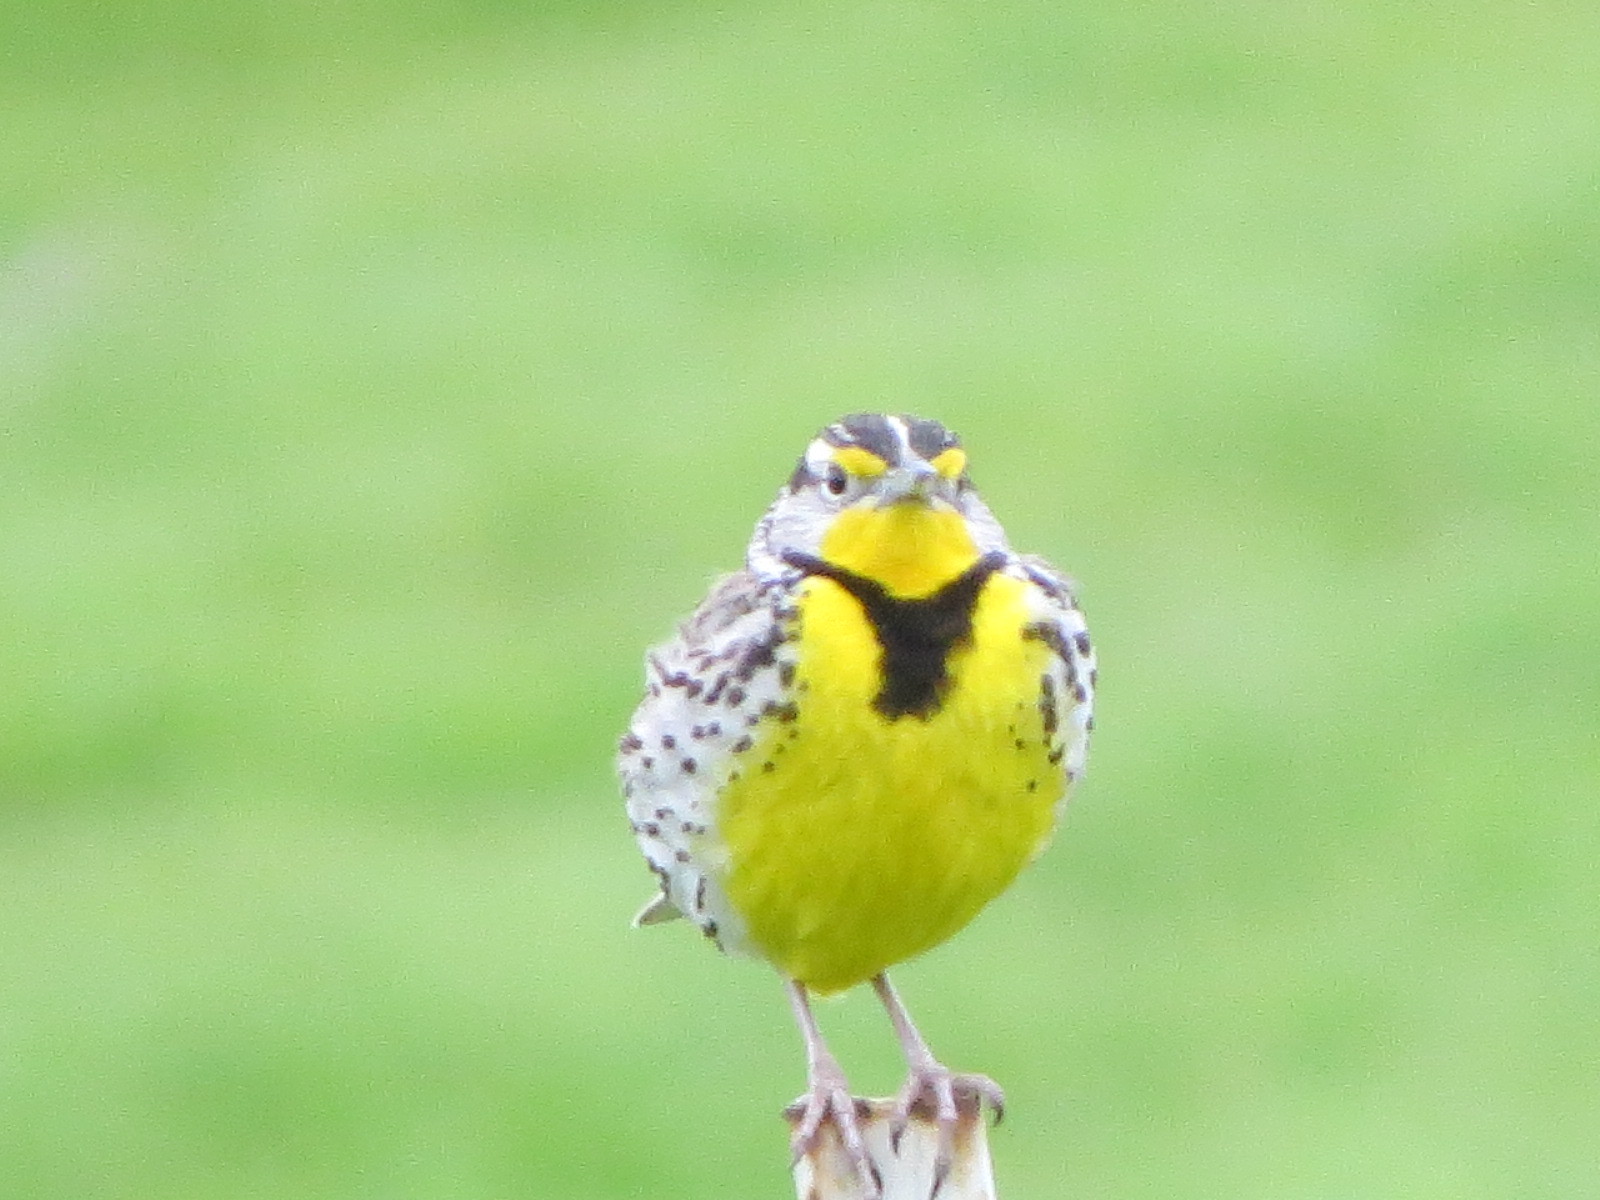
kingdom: Animalia
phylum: Chordata
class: Aves
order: Passeriformes
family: Icteridae
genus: Sturnella
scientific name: Sturnella neglecta
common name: Western meadowlark
